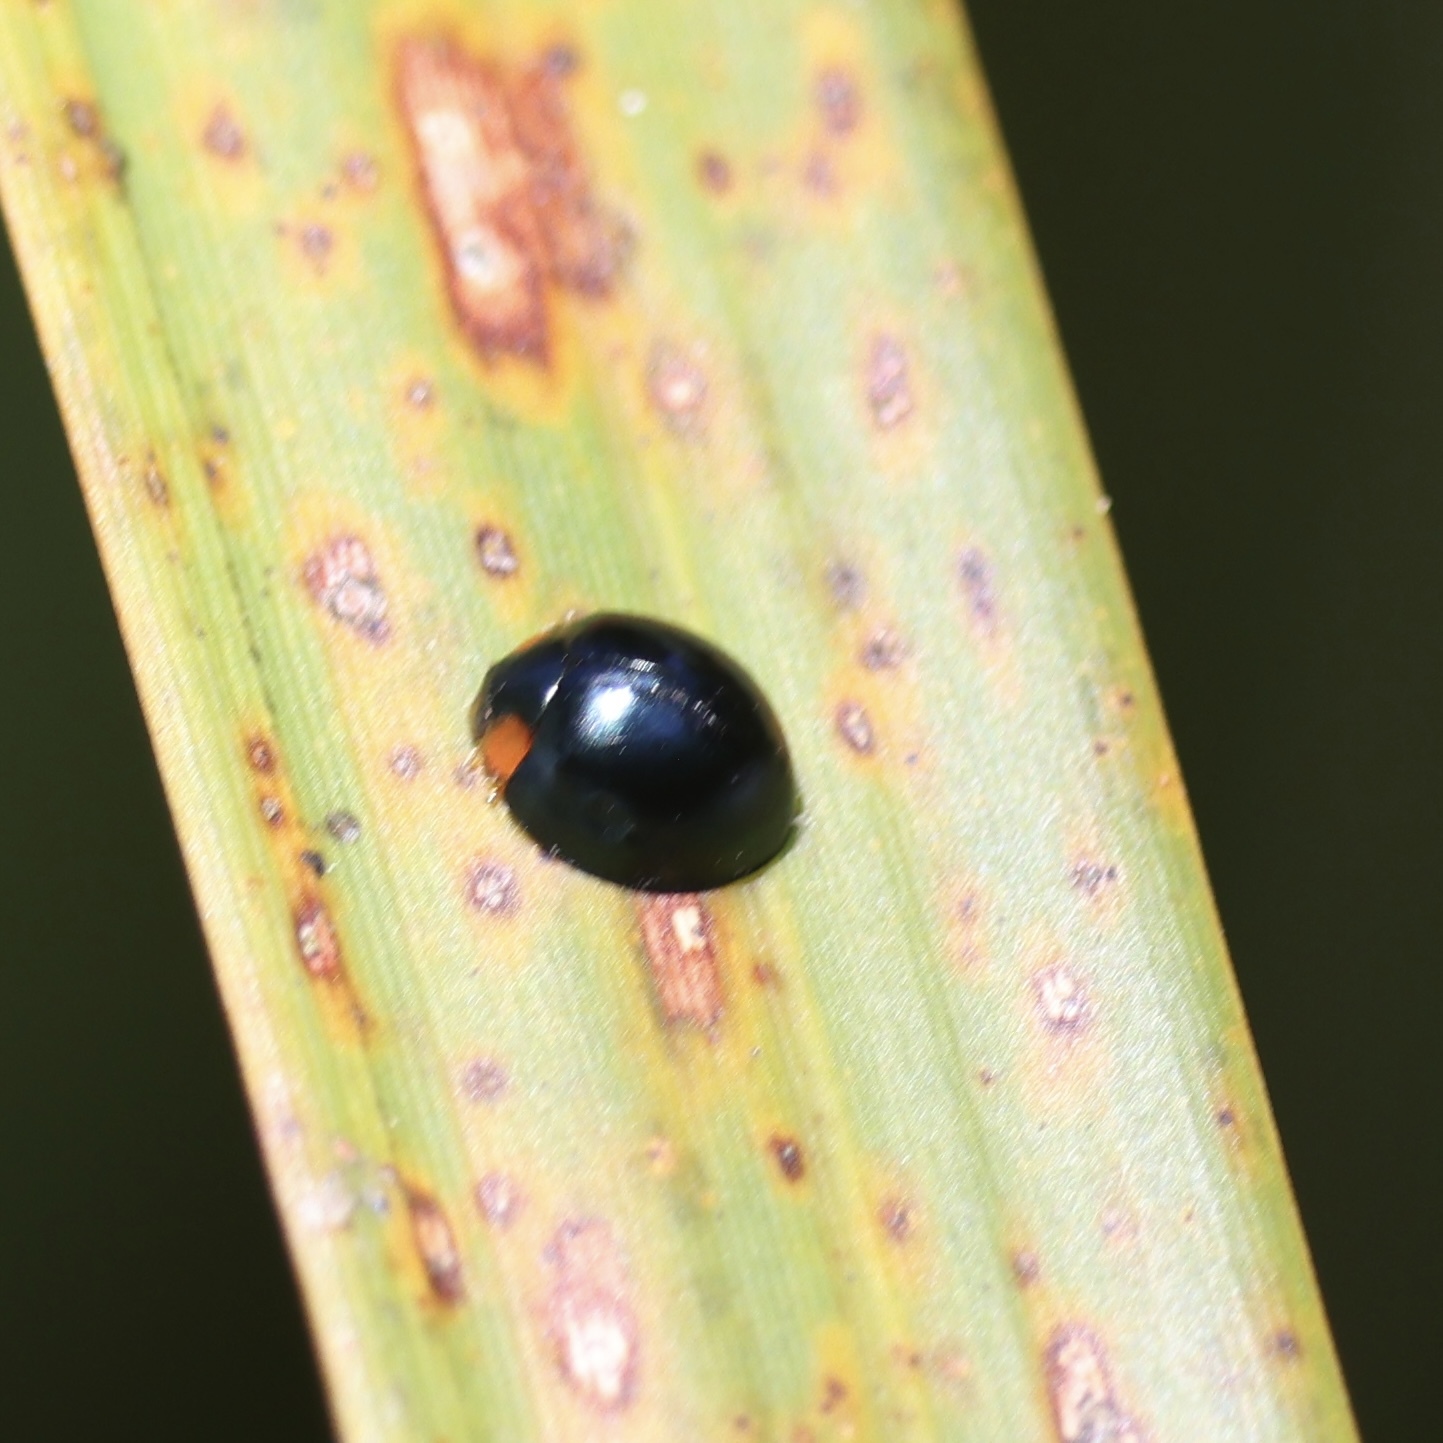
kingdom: Animalia
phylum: Arthropoda
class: Insecta
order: Coleoptera
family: Coccinellidae
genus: Curinus
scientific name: Curinus coeruleus
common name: Ladybird beetle
